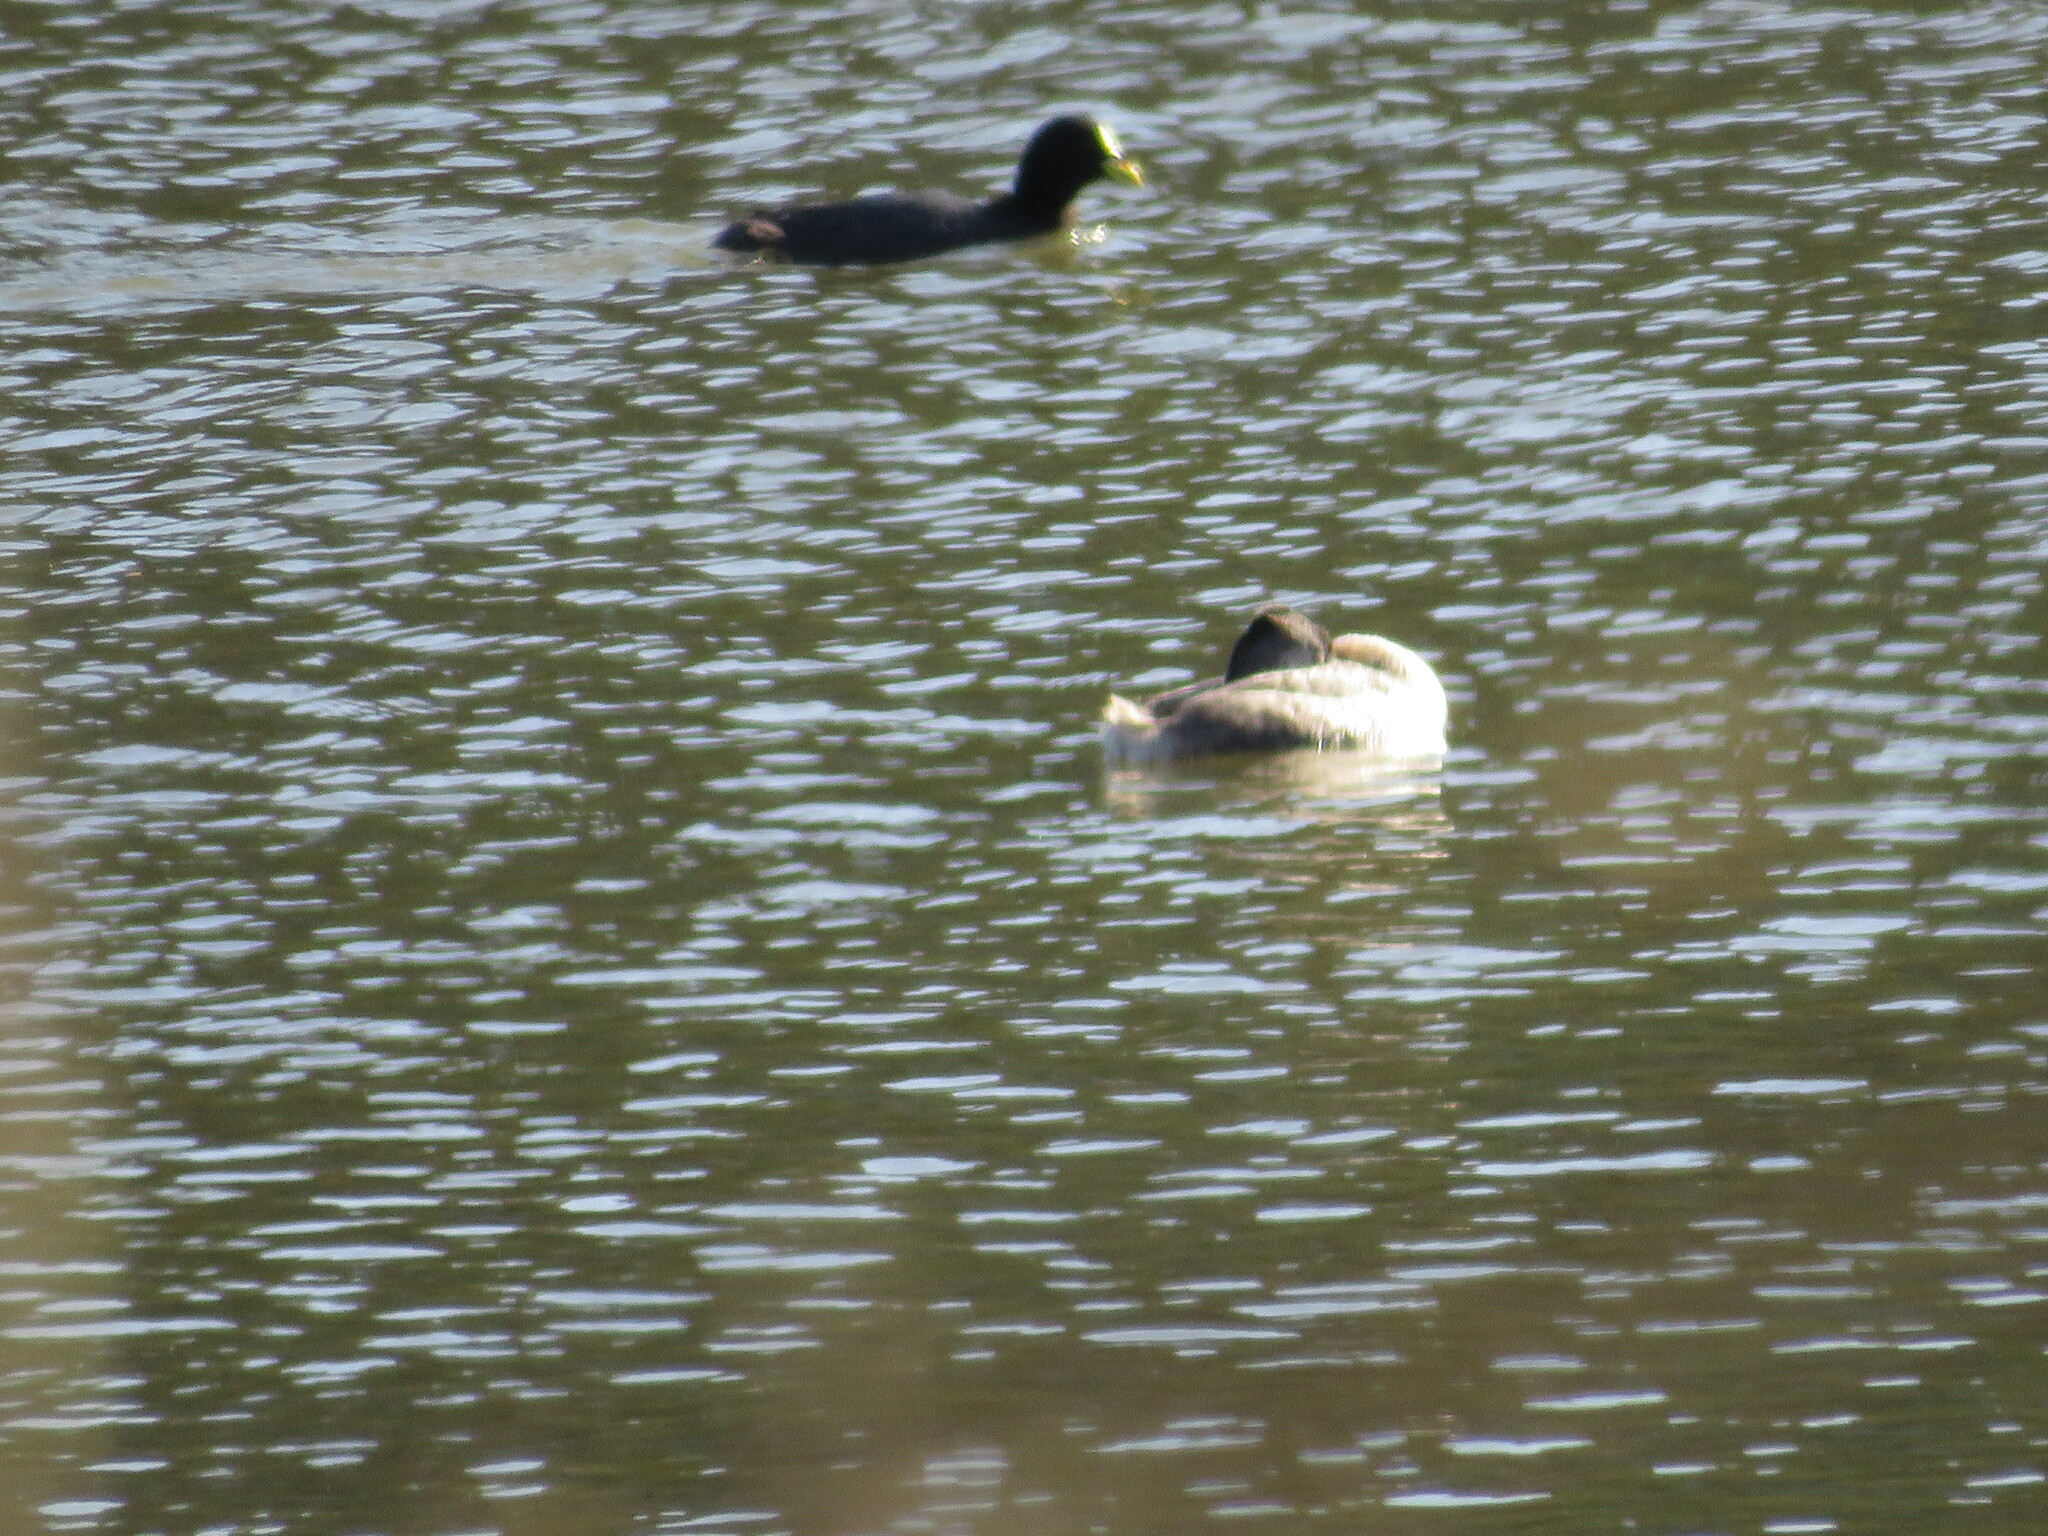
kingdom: Animalia
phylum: Chordata
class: Aves
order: Podicipediformes
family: Podicipedidae
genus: Podiceps
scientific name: Podiceps major
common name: Great grebe
